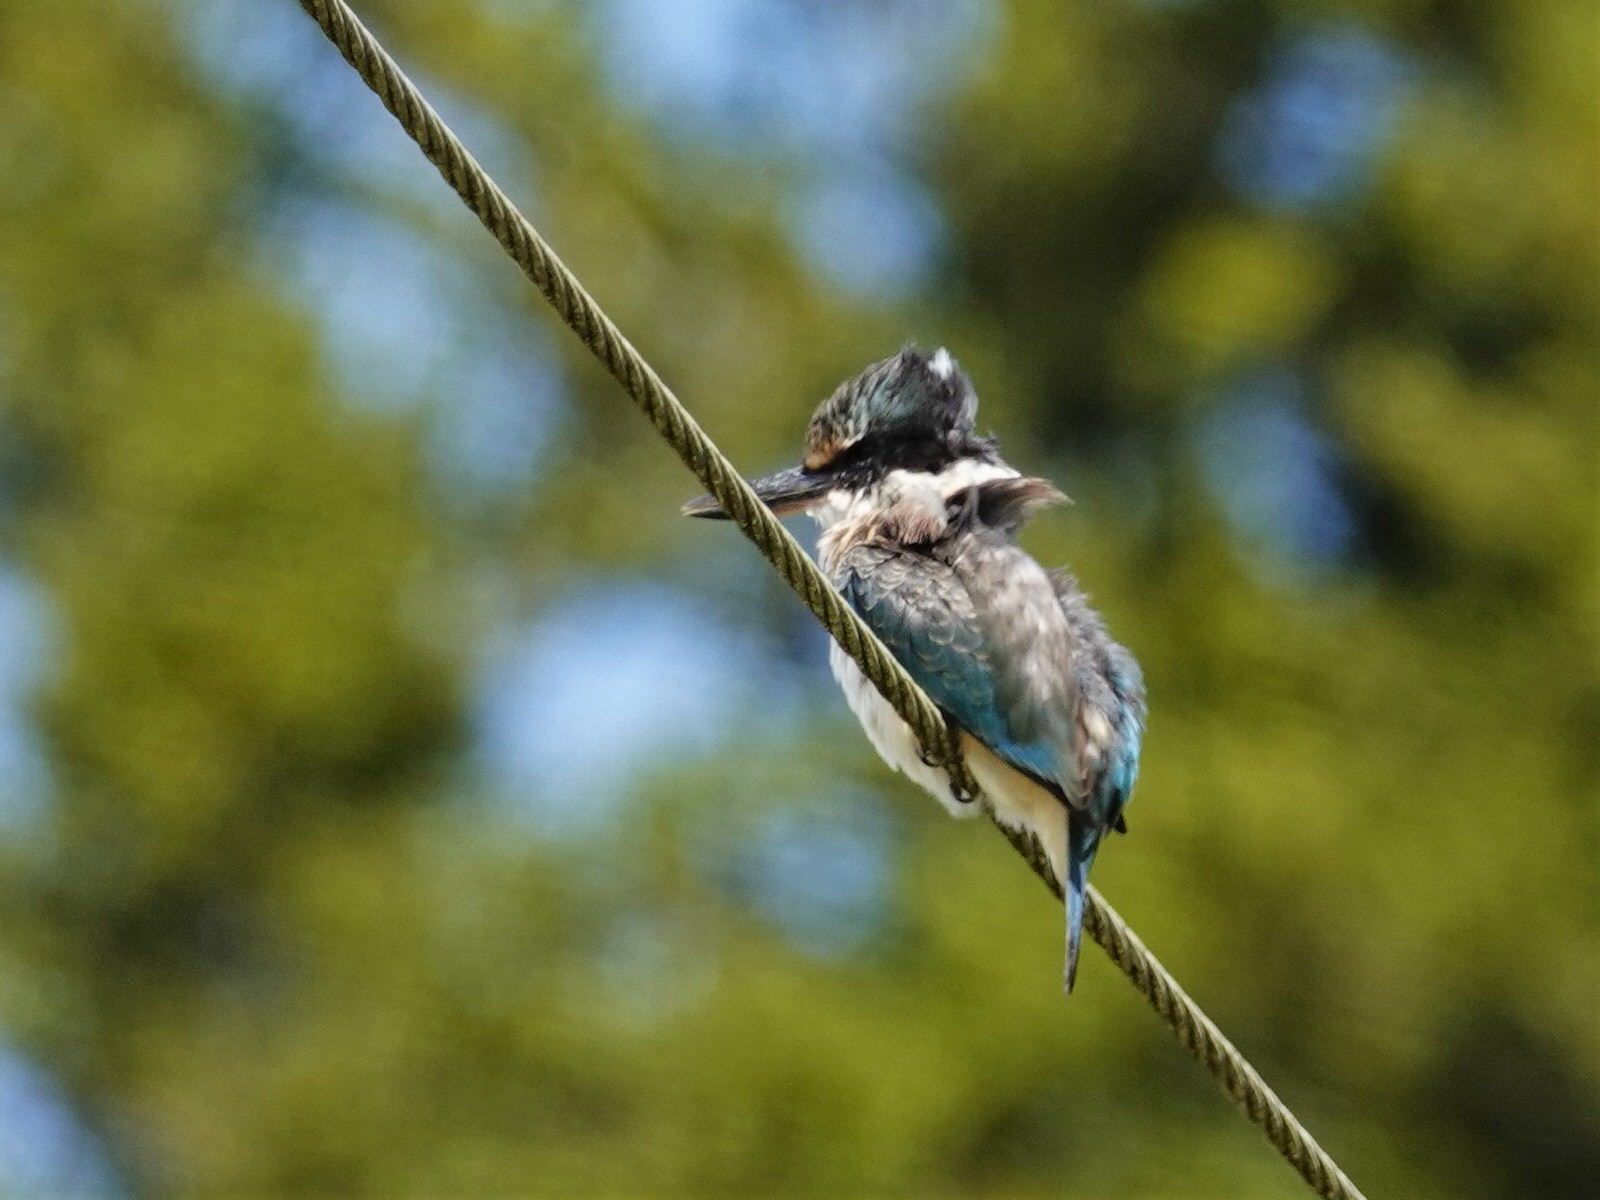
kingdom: Animalia
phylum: Chordata
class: Aves
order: Coraciiformes
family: Alcedinidae
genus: Todiramphus
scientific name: Todiramphus sanctus
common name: Sacred kingfisher
